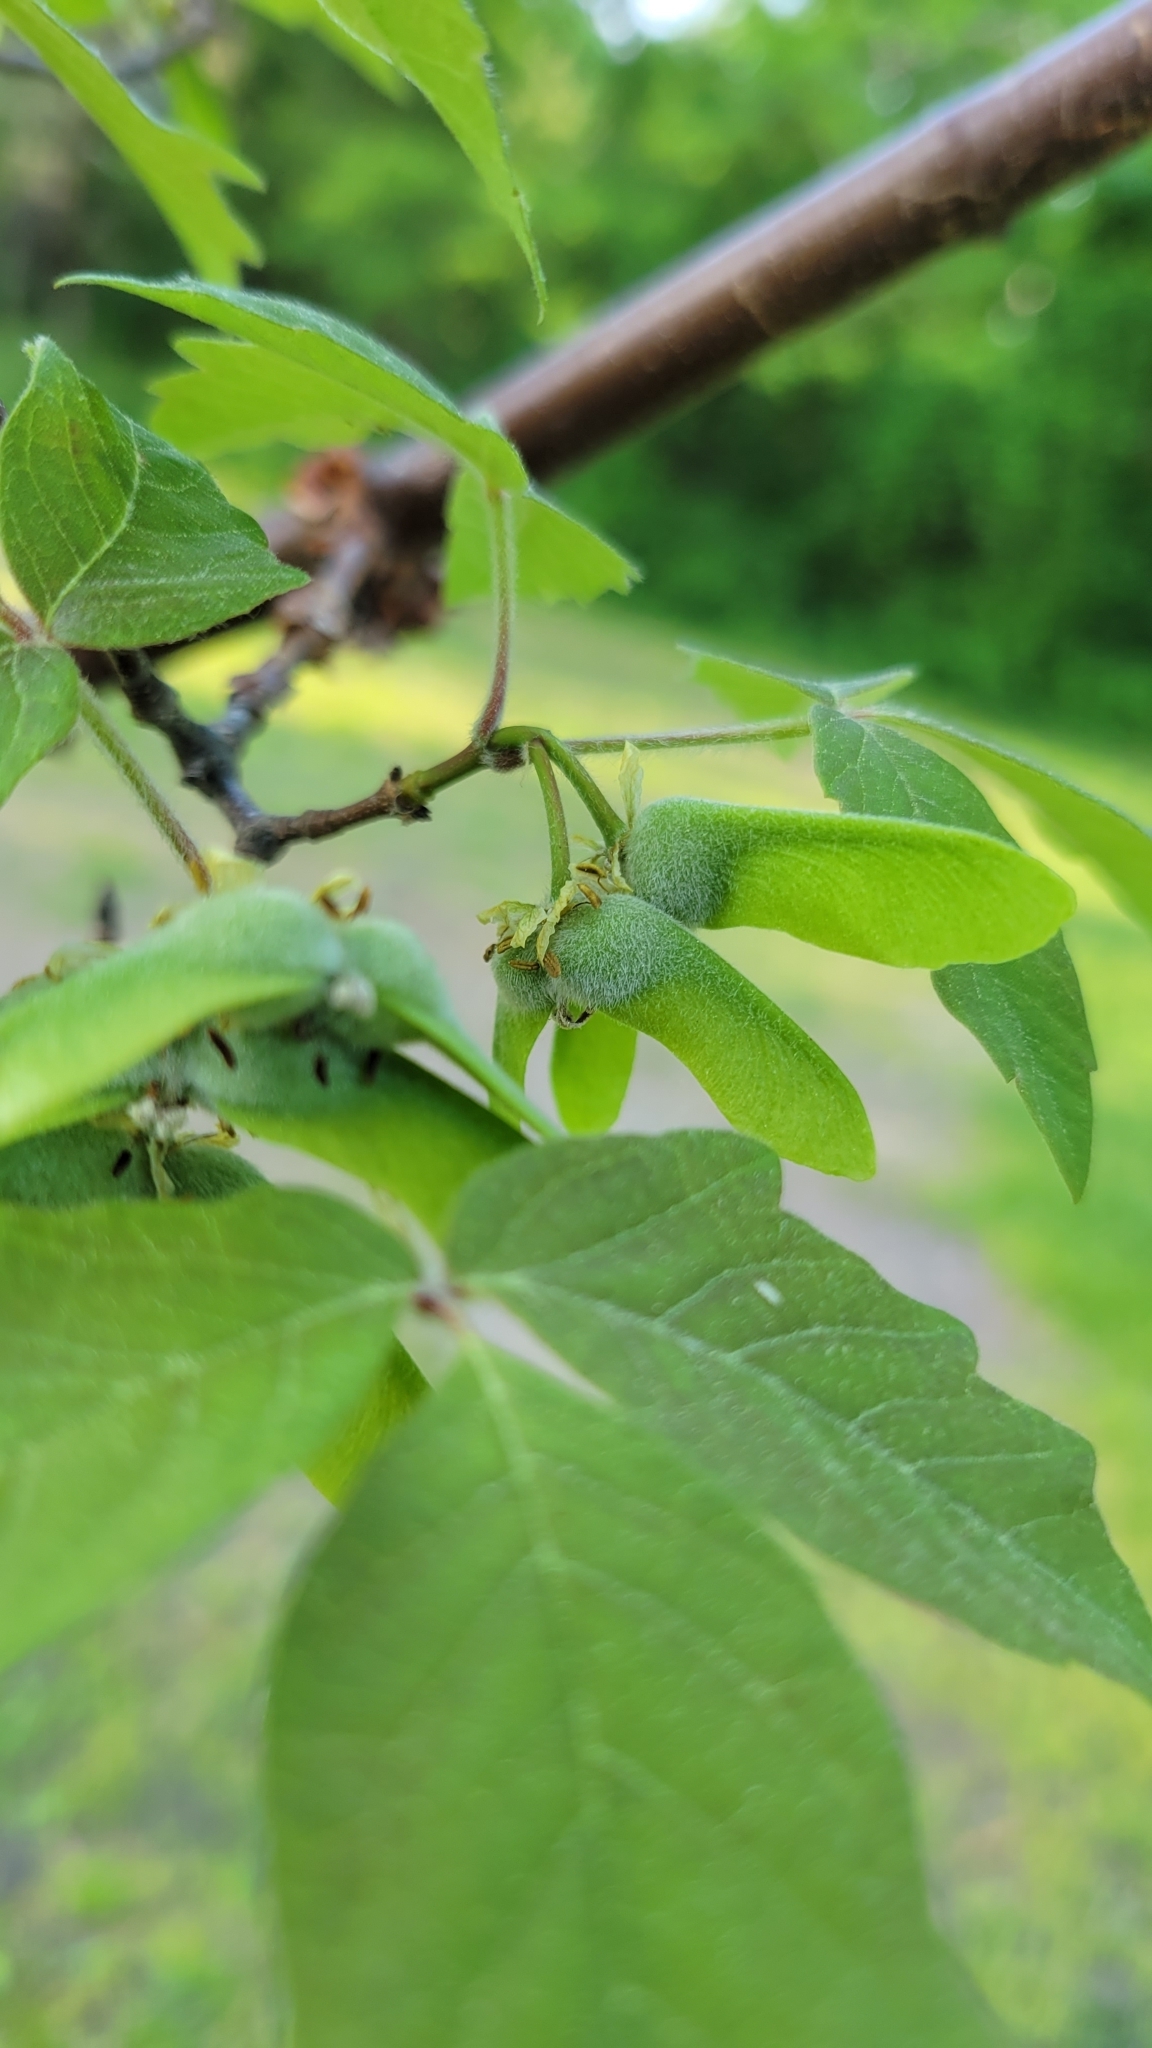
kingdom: Plantae
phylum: Tracheophyta
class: Magnoliopsida
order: Sapindales
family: Sapindaceae
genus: Acer
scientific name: Acer negundo
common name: Ashleaf maple
